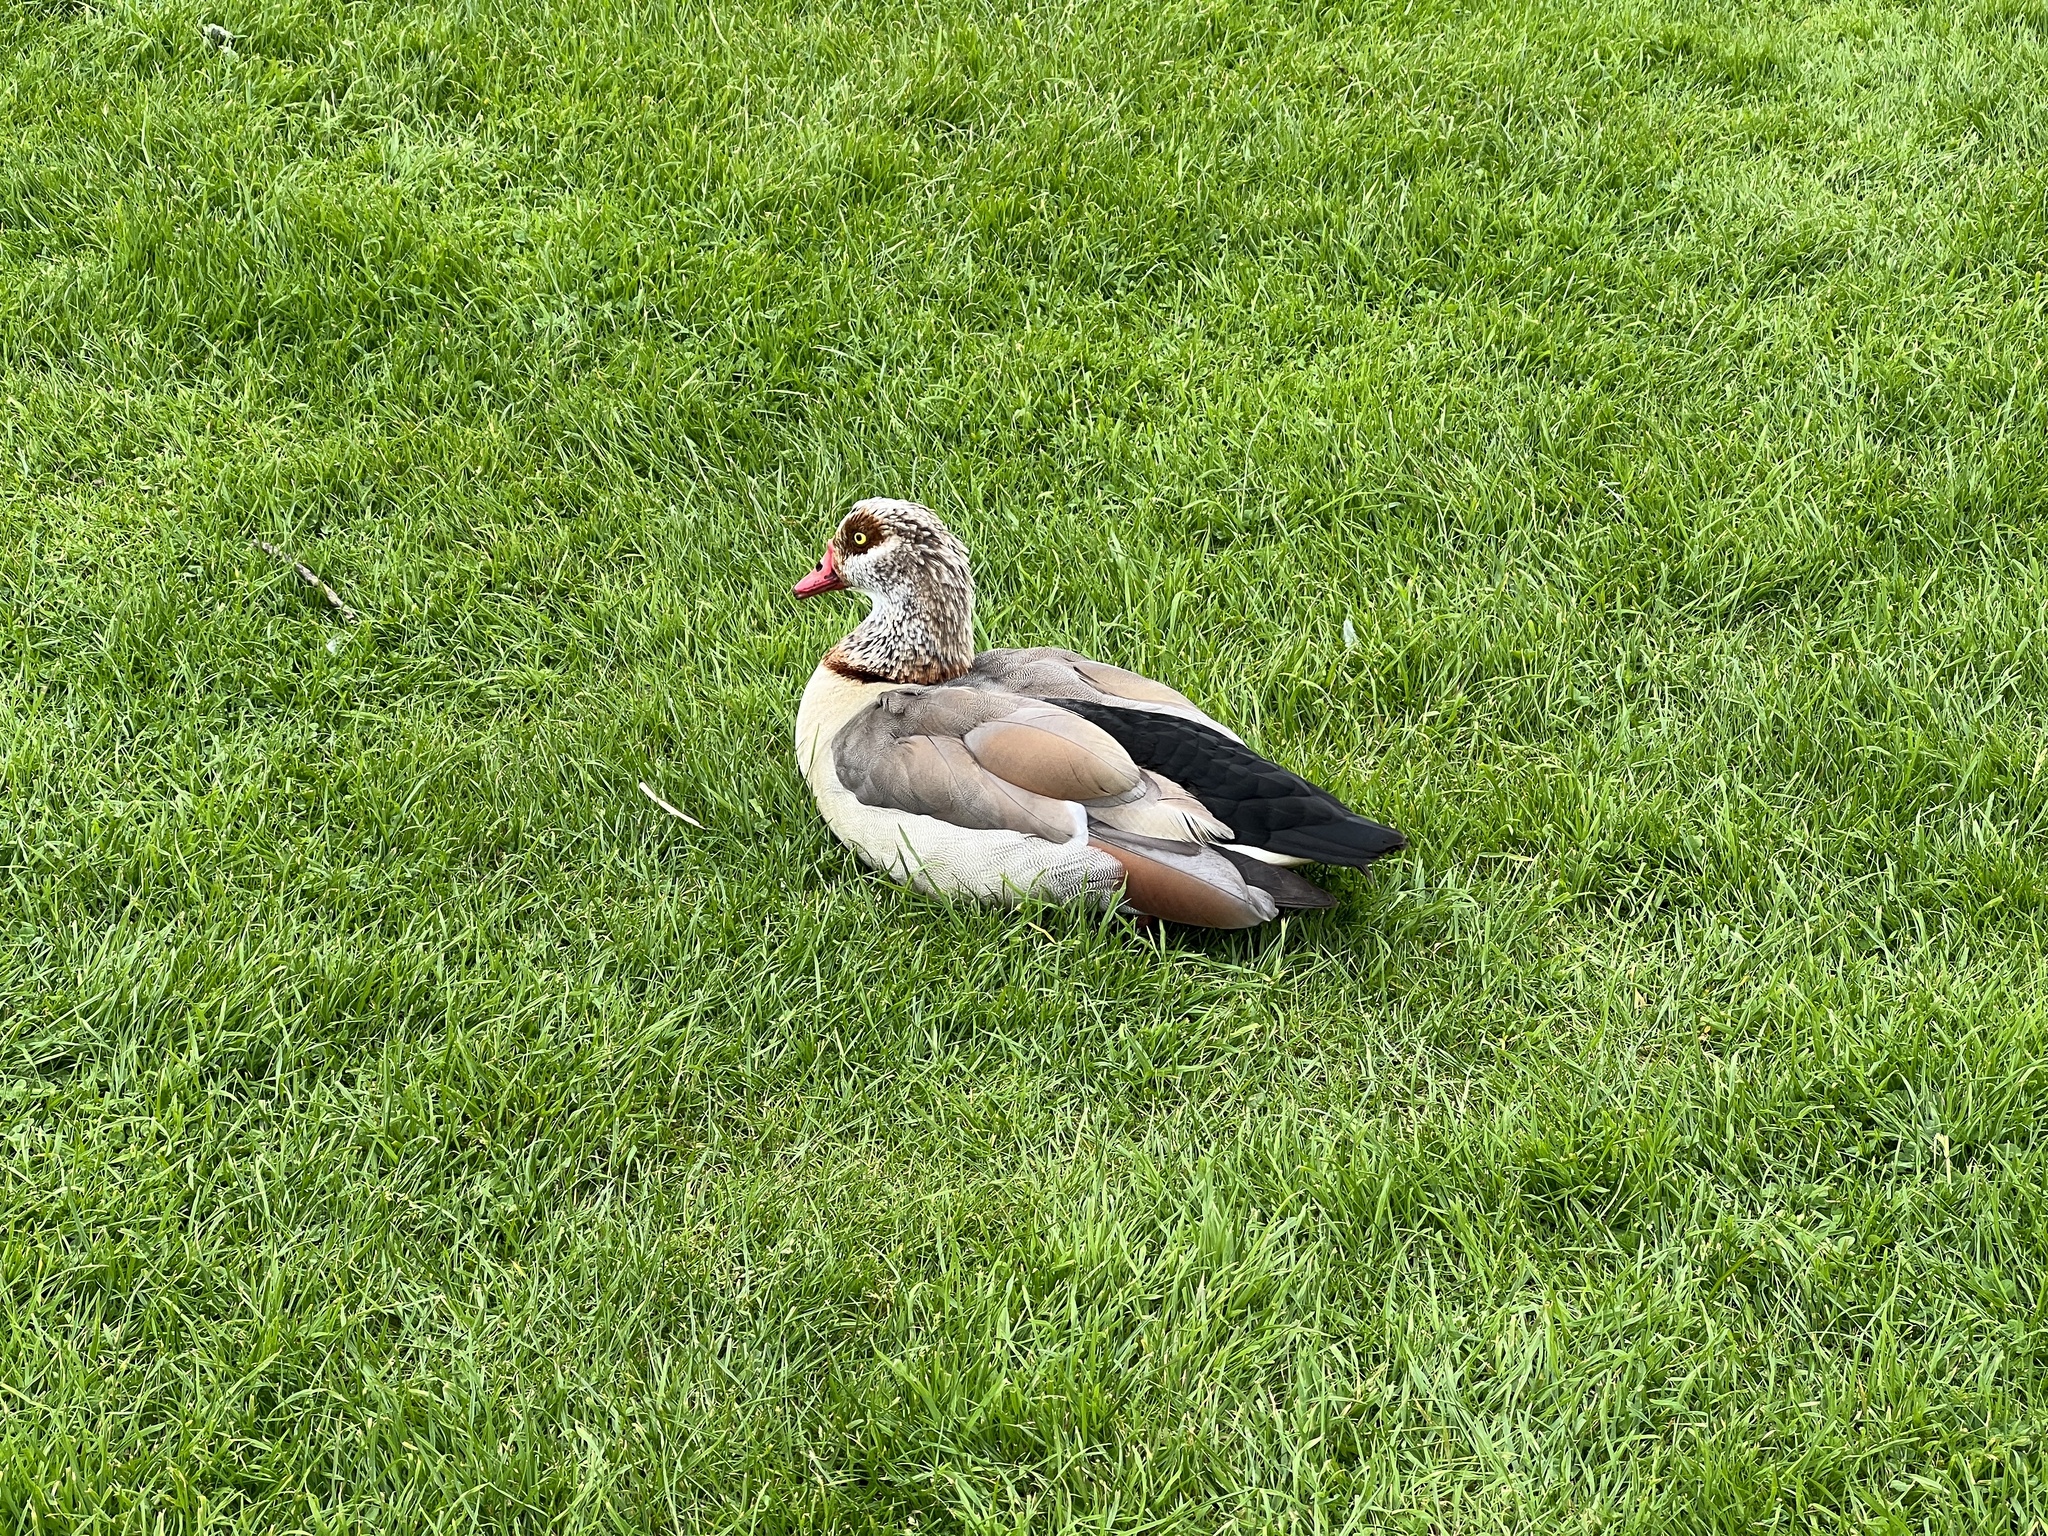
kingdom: Animalia
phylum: Chordata
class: Aves
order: Anseriformes
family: Anatidae
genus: Alopochen
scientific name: Alopochen aegyptiaca
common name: Egyptian goose
